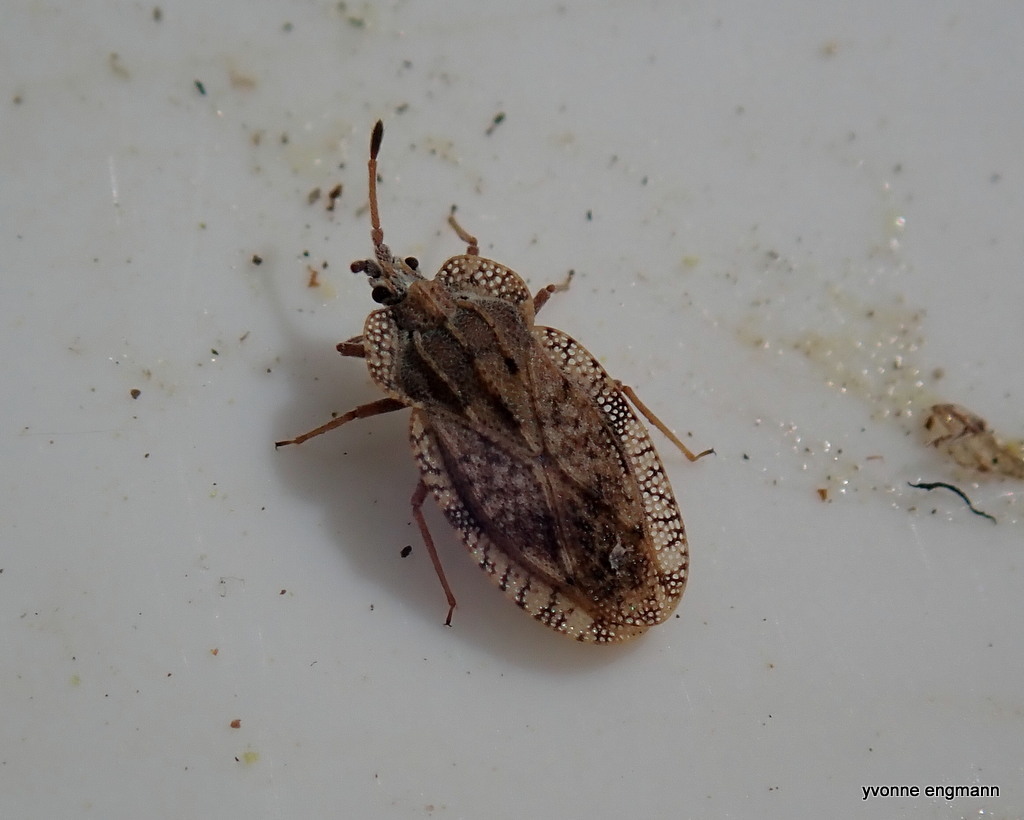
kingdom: Animalia
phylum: Arthropoda
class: Insecta
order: Hemiptera
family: Tingidae
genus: Tingis
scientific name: Tingis ampliata
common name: Creeping thistle lacebug
